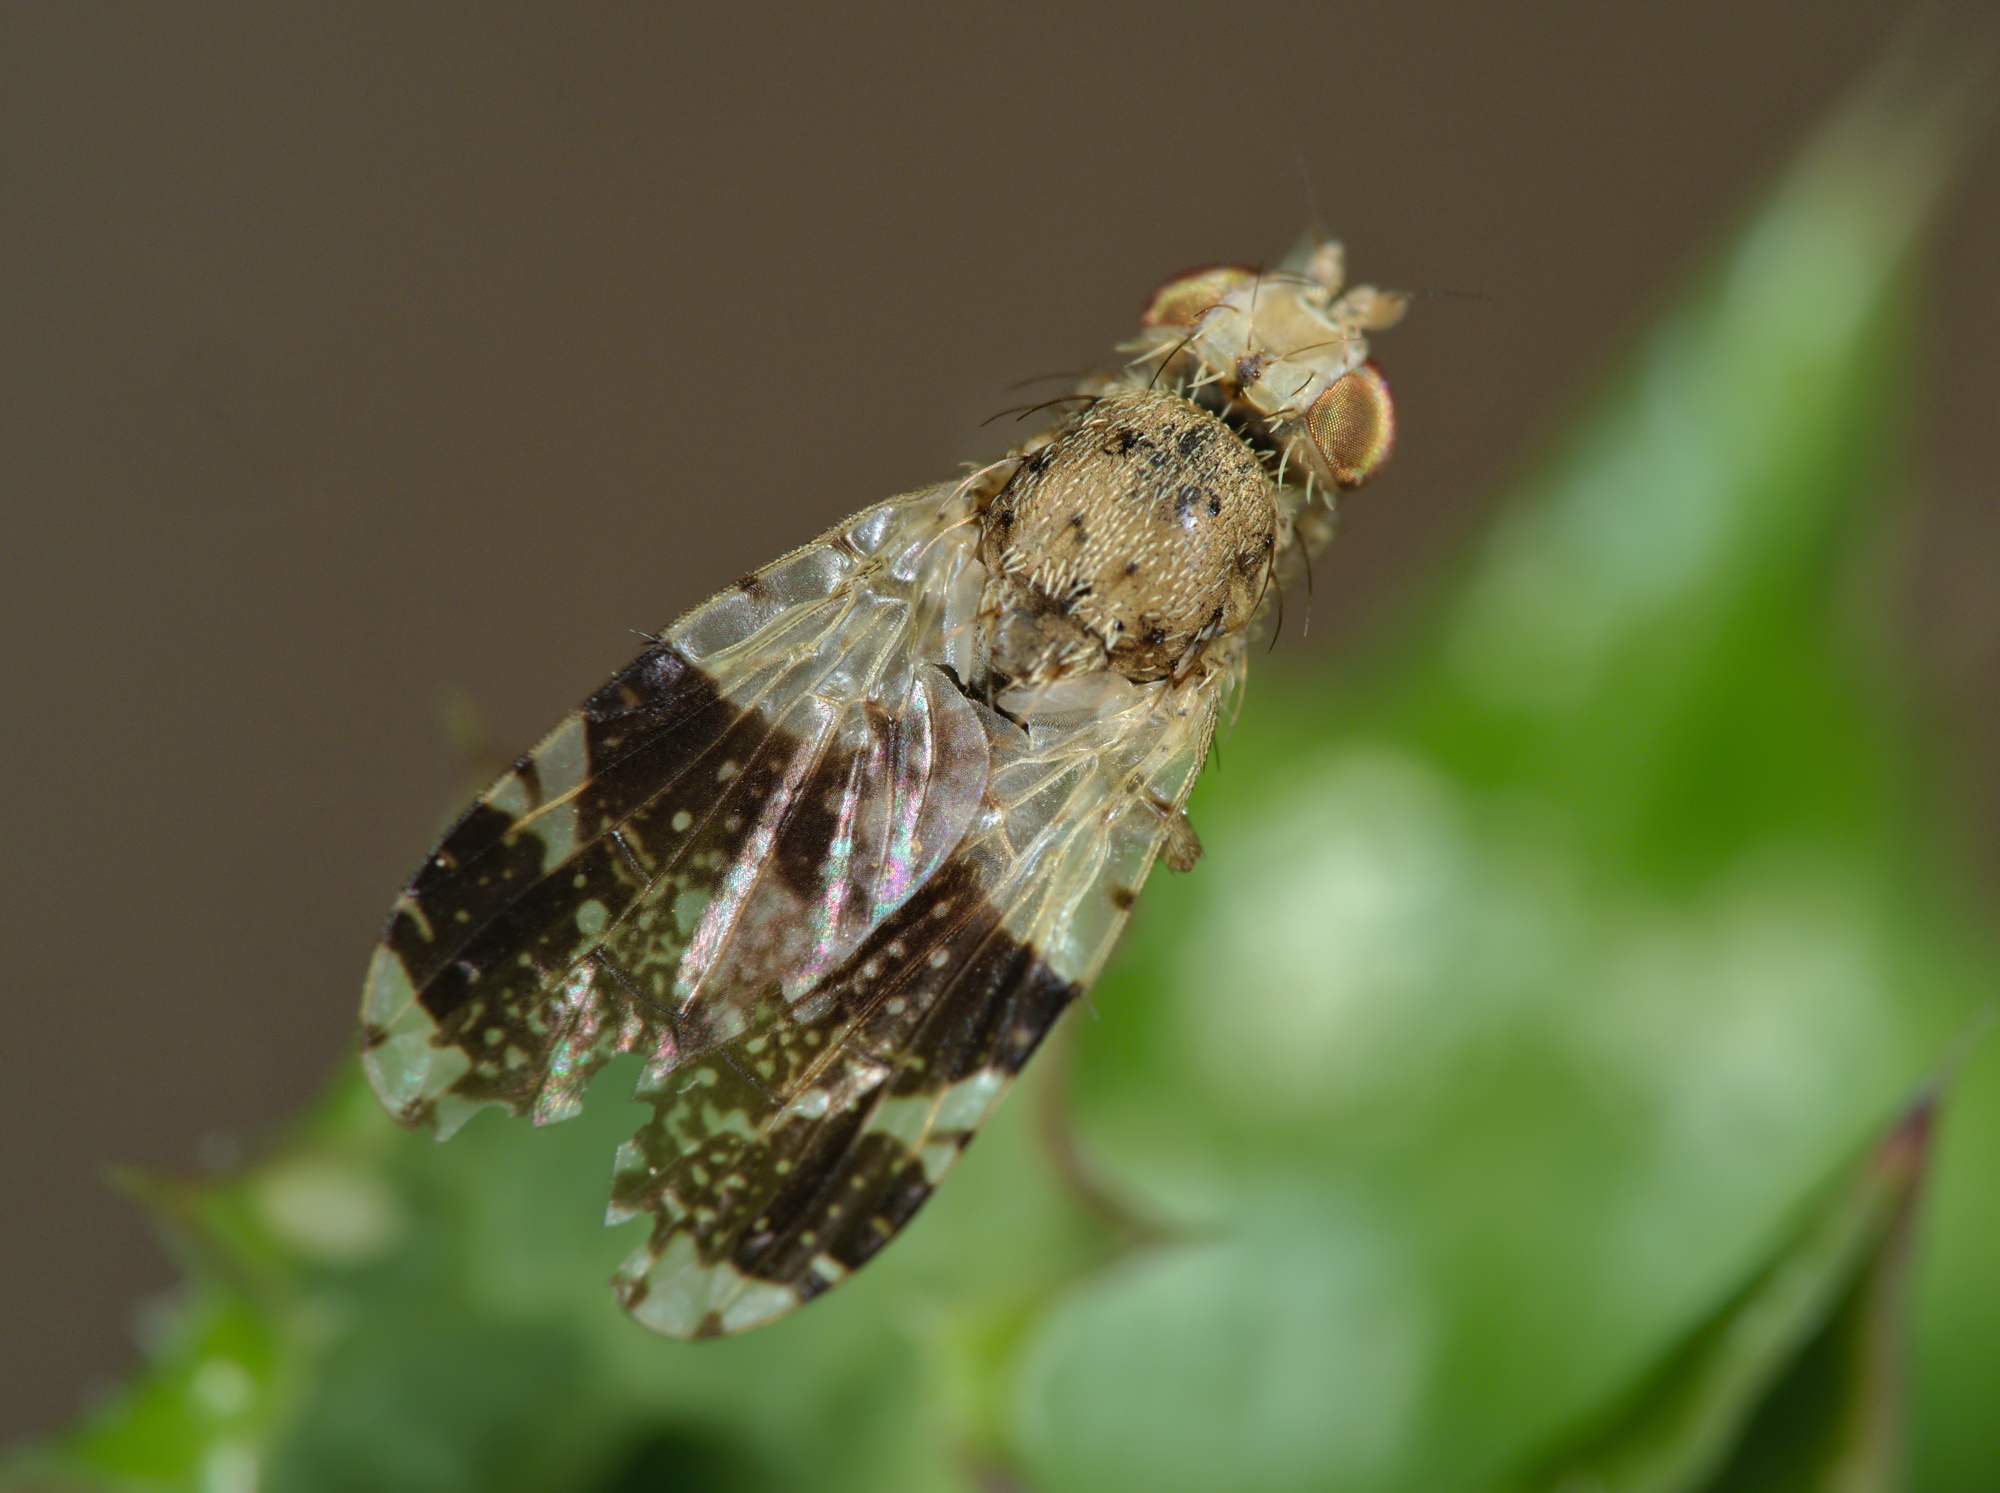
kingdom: Animalia
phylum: Arthropoda
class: Insecta
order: Diptera
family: Tephritidae
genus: Tephritis
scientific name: Tephritis formosa
